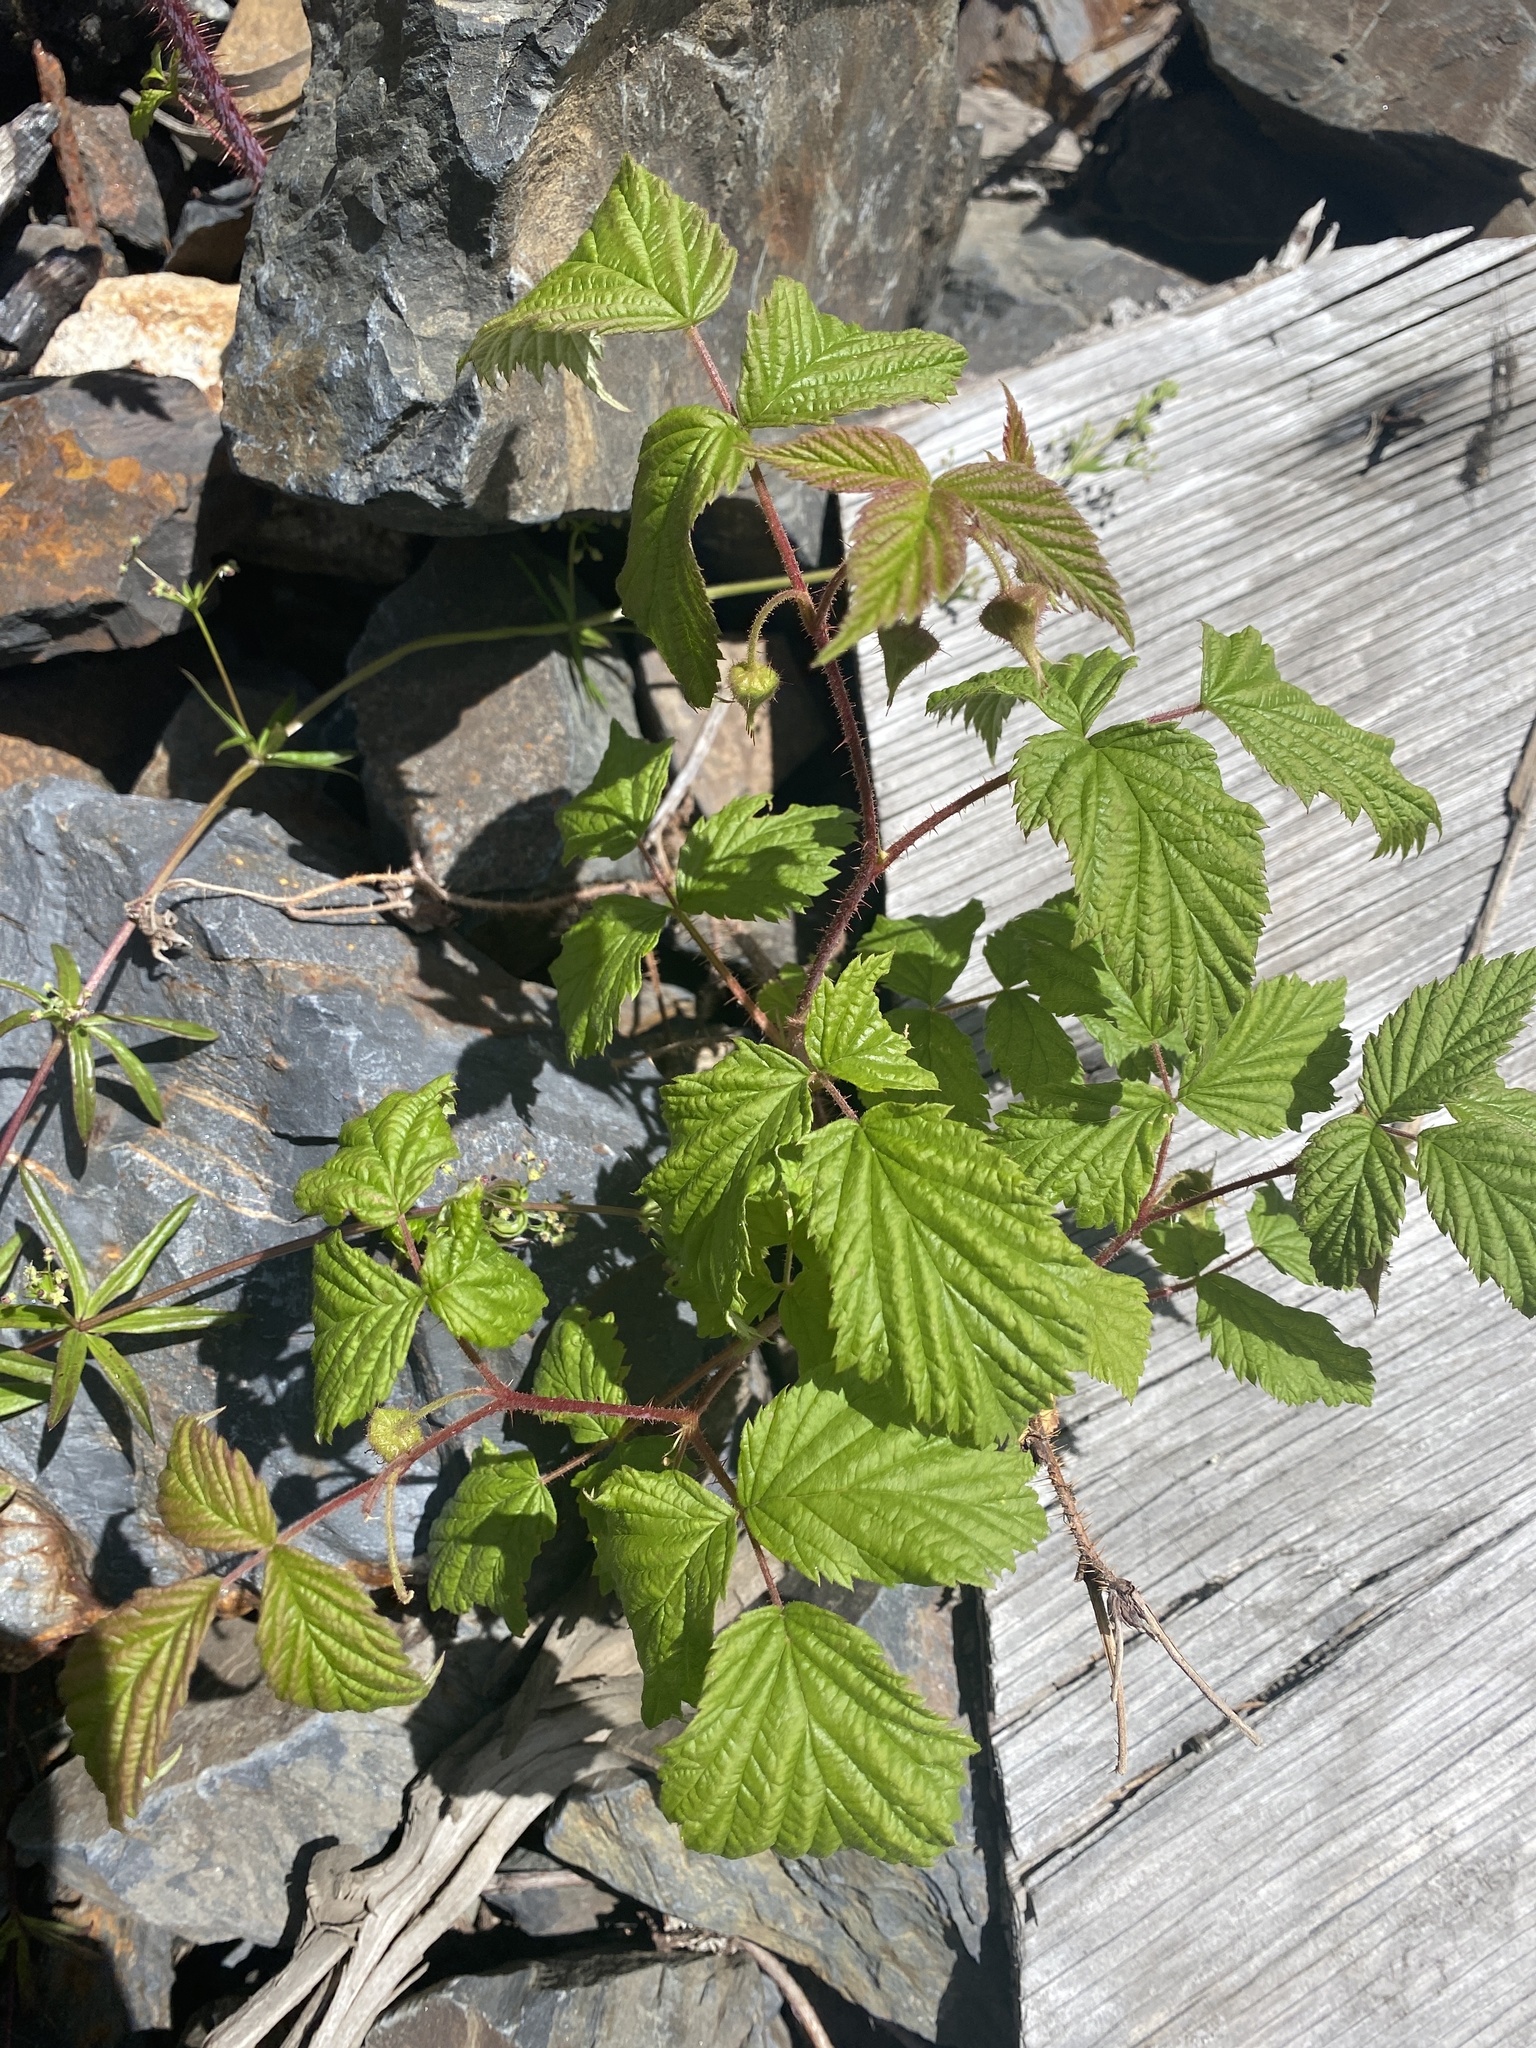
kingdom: Plantae
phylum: Tracheophyta
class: Magnoliopsida
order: Rosales
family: Rosaceae
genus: Rubus
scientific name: Rubus idaeus
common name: Raspberry
